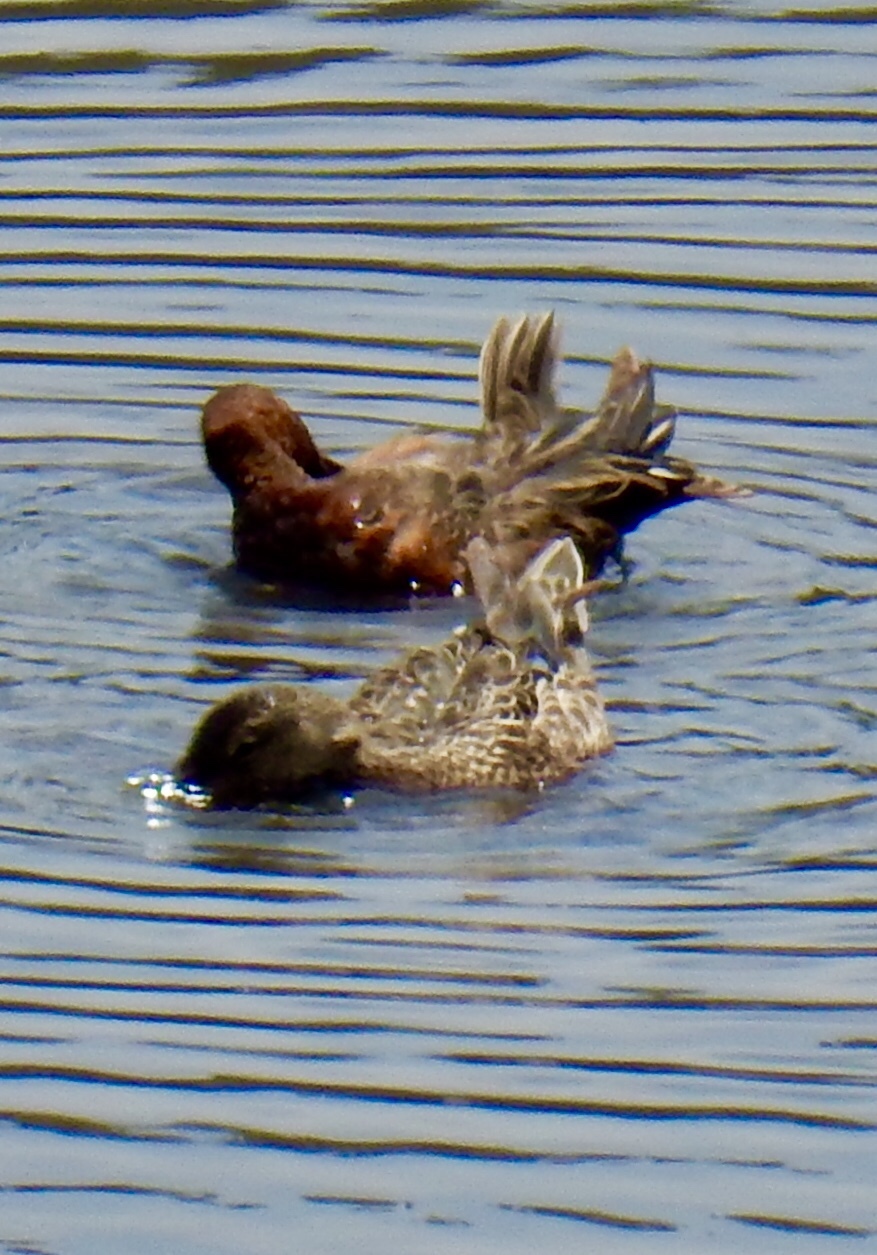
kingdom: Animalia
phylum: Chordata
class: Aves
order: Anseriformes
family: Anatidae
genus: Spatula
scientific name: Spatula cyanoptera
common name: Cinnamon teal
